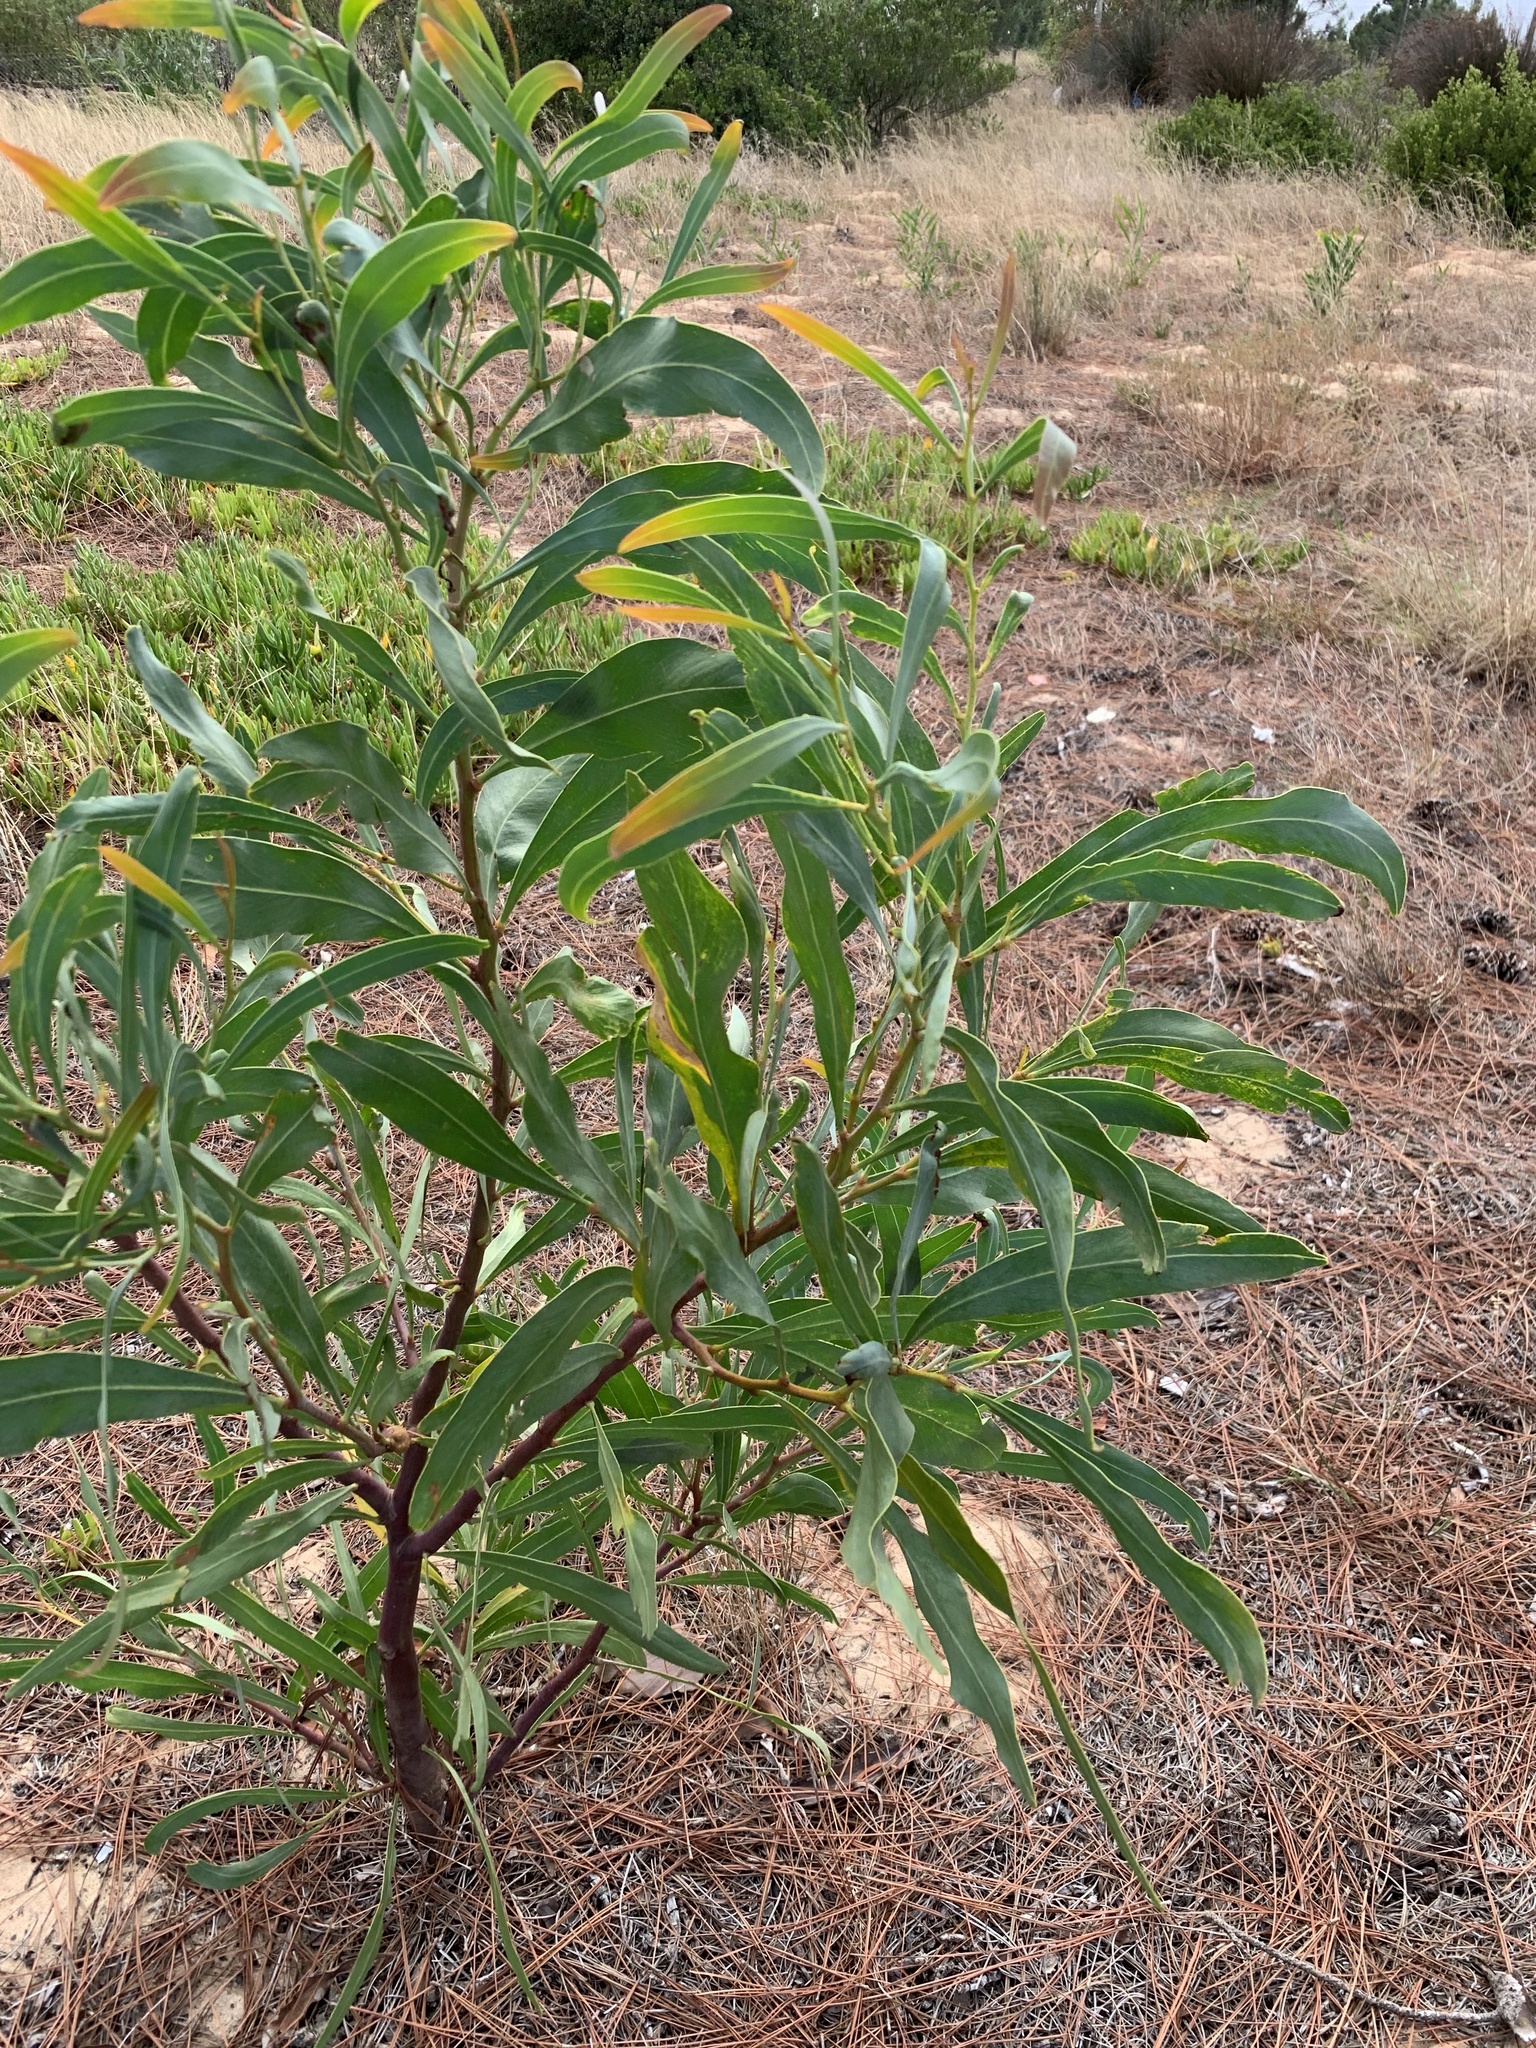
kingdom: Plantae
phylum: Tracheophyta
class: Magnoliopsida
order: Fabales
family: Fabaceae
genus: Acacia
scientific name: Acacia saligna
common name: Orange wattle
